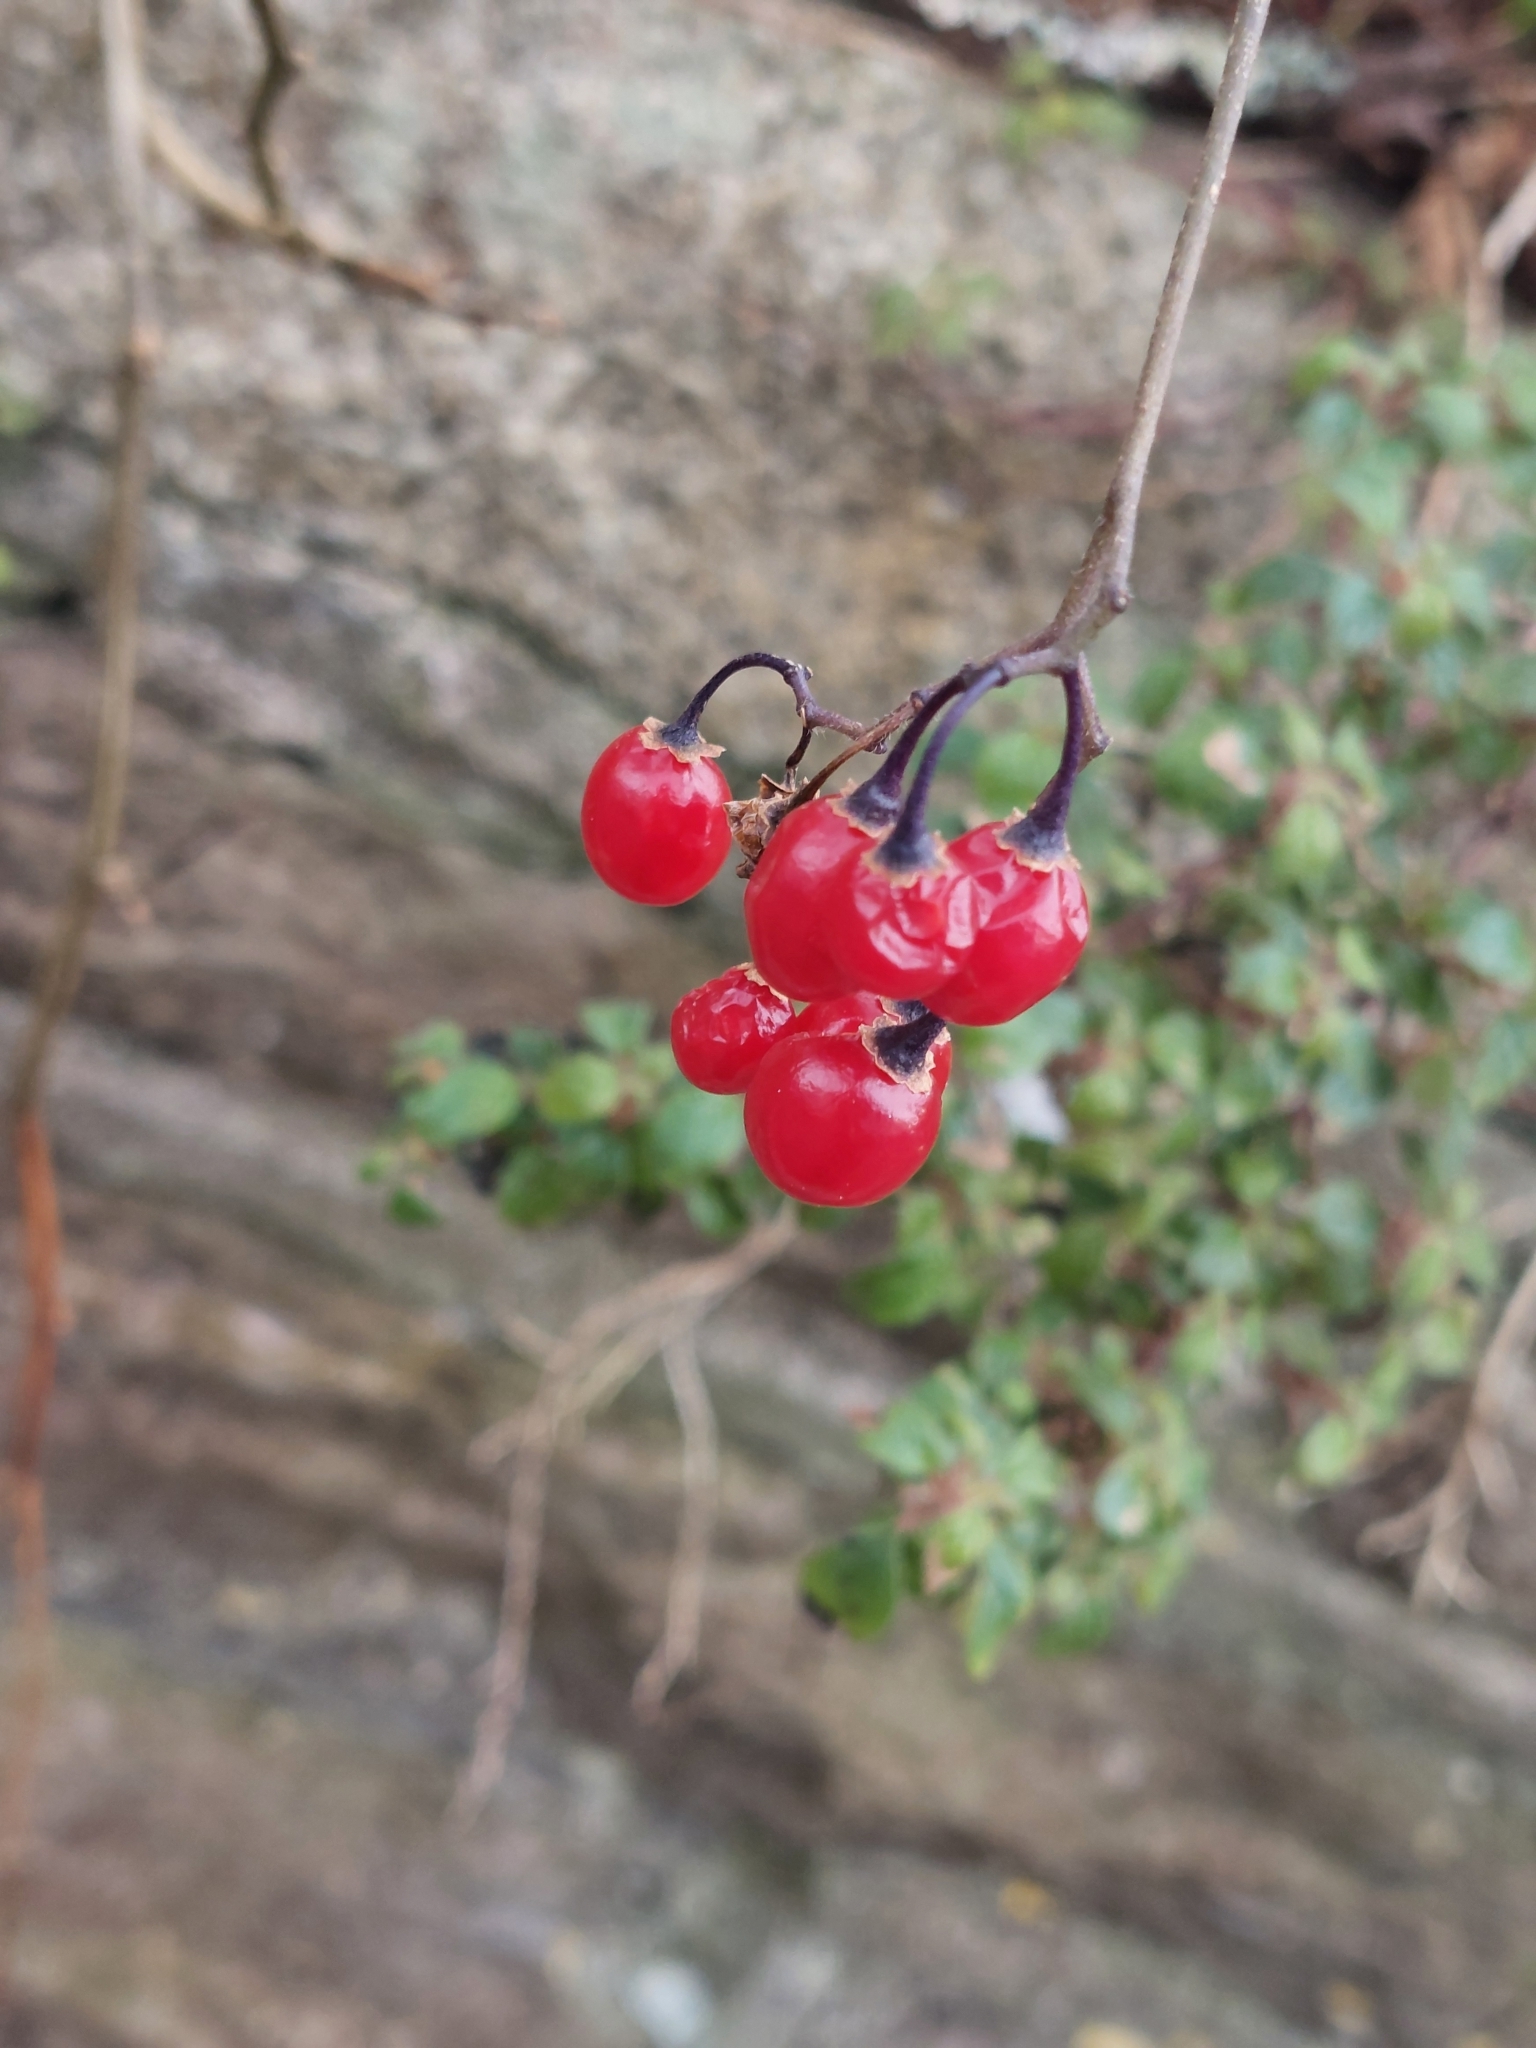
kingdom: Plantae
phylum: Tracheophyta
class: Magnoliopsida
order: Solanales
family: Solanaceae
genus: Solanum
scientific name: Solanum dulcamara
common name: Climbing nightshade
